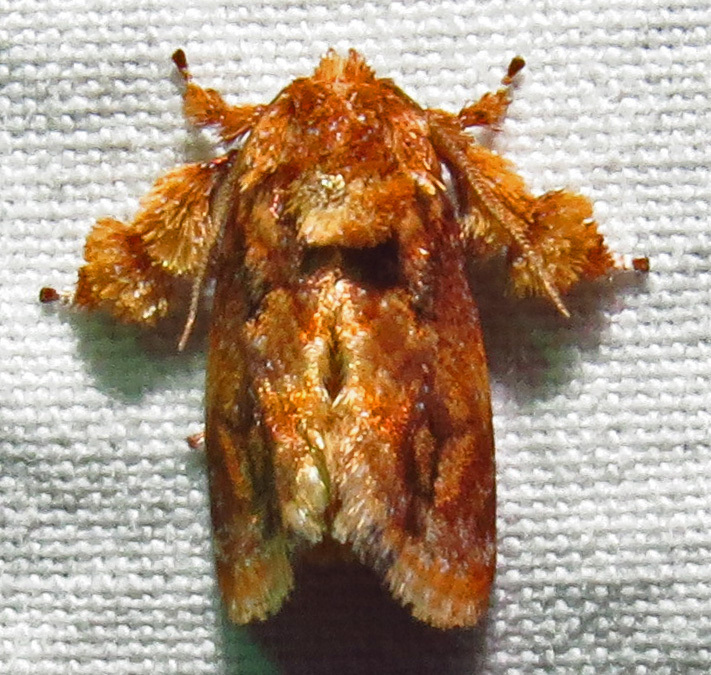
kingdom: Animalia
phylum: Arthropoda
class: Insecta
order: Lepidoptera
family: Limacodidae
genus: Isochaetes
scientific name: Isochaetes beutenmuelleri
